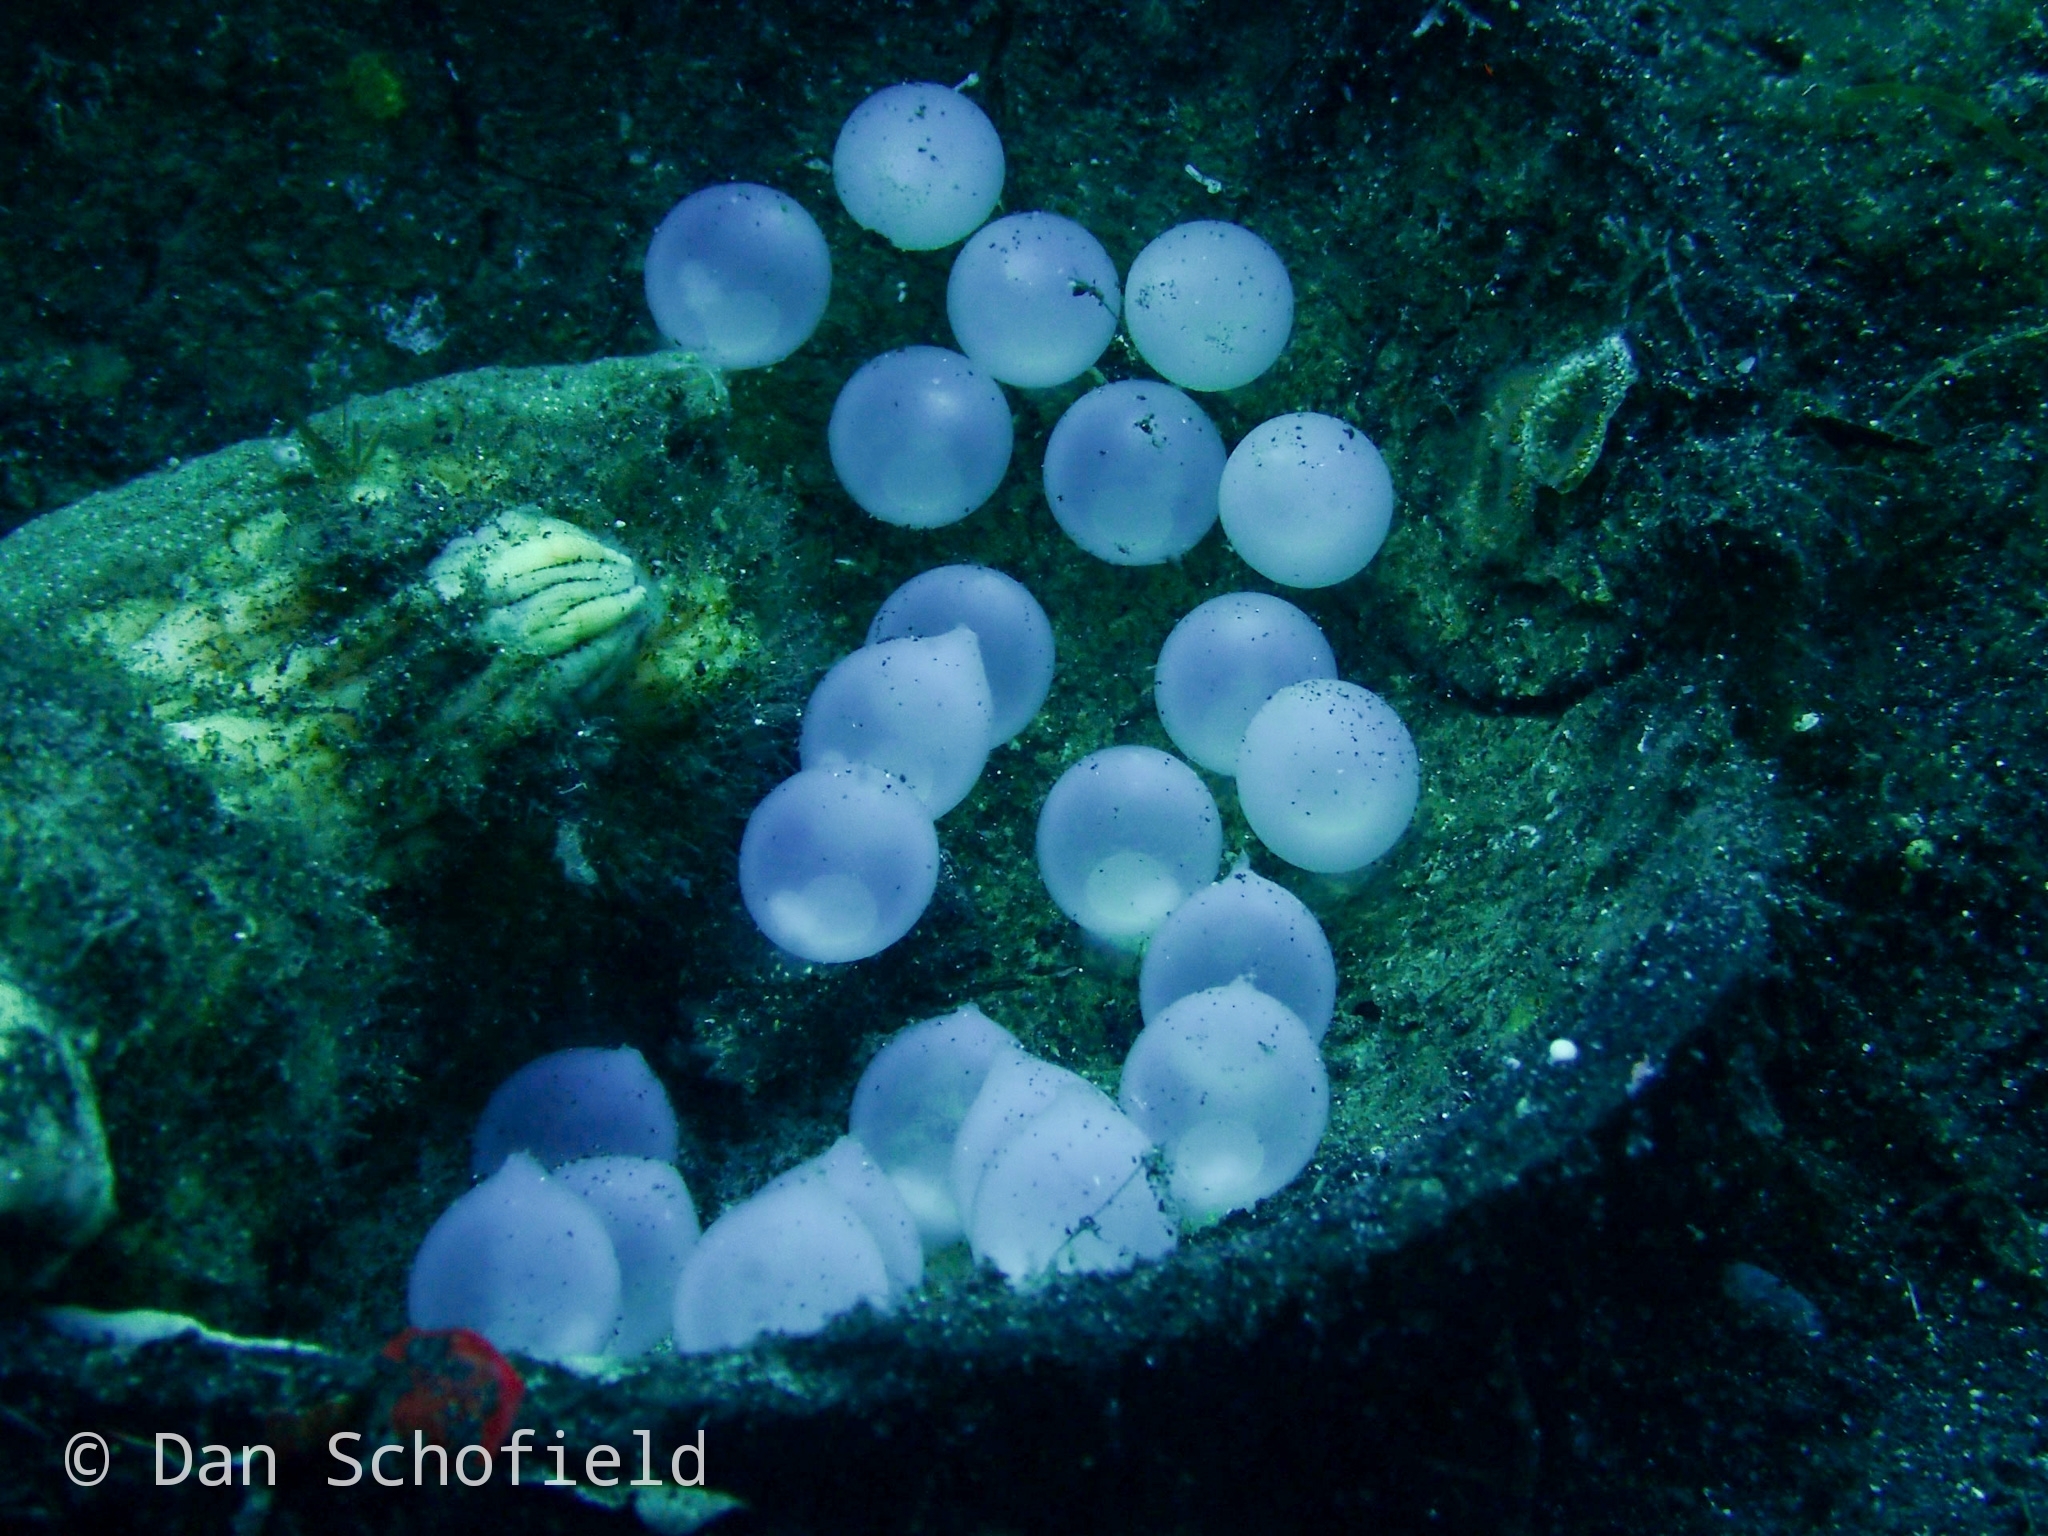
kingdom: Animalia
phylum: Mollusca
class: Cephalopoda
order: Sepiida
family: Sepiidae
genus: Ascarosepion
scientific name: Ascarosepion pfefferi
